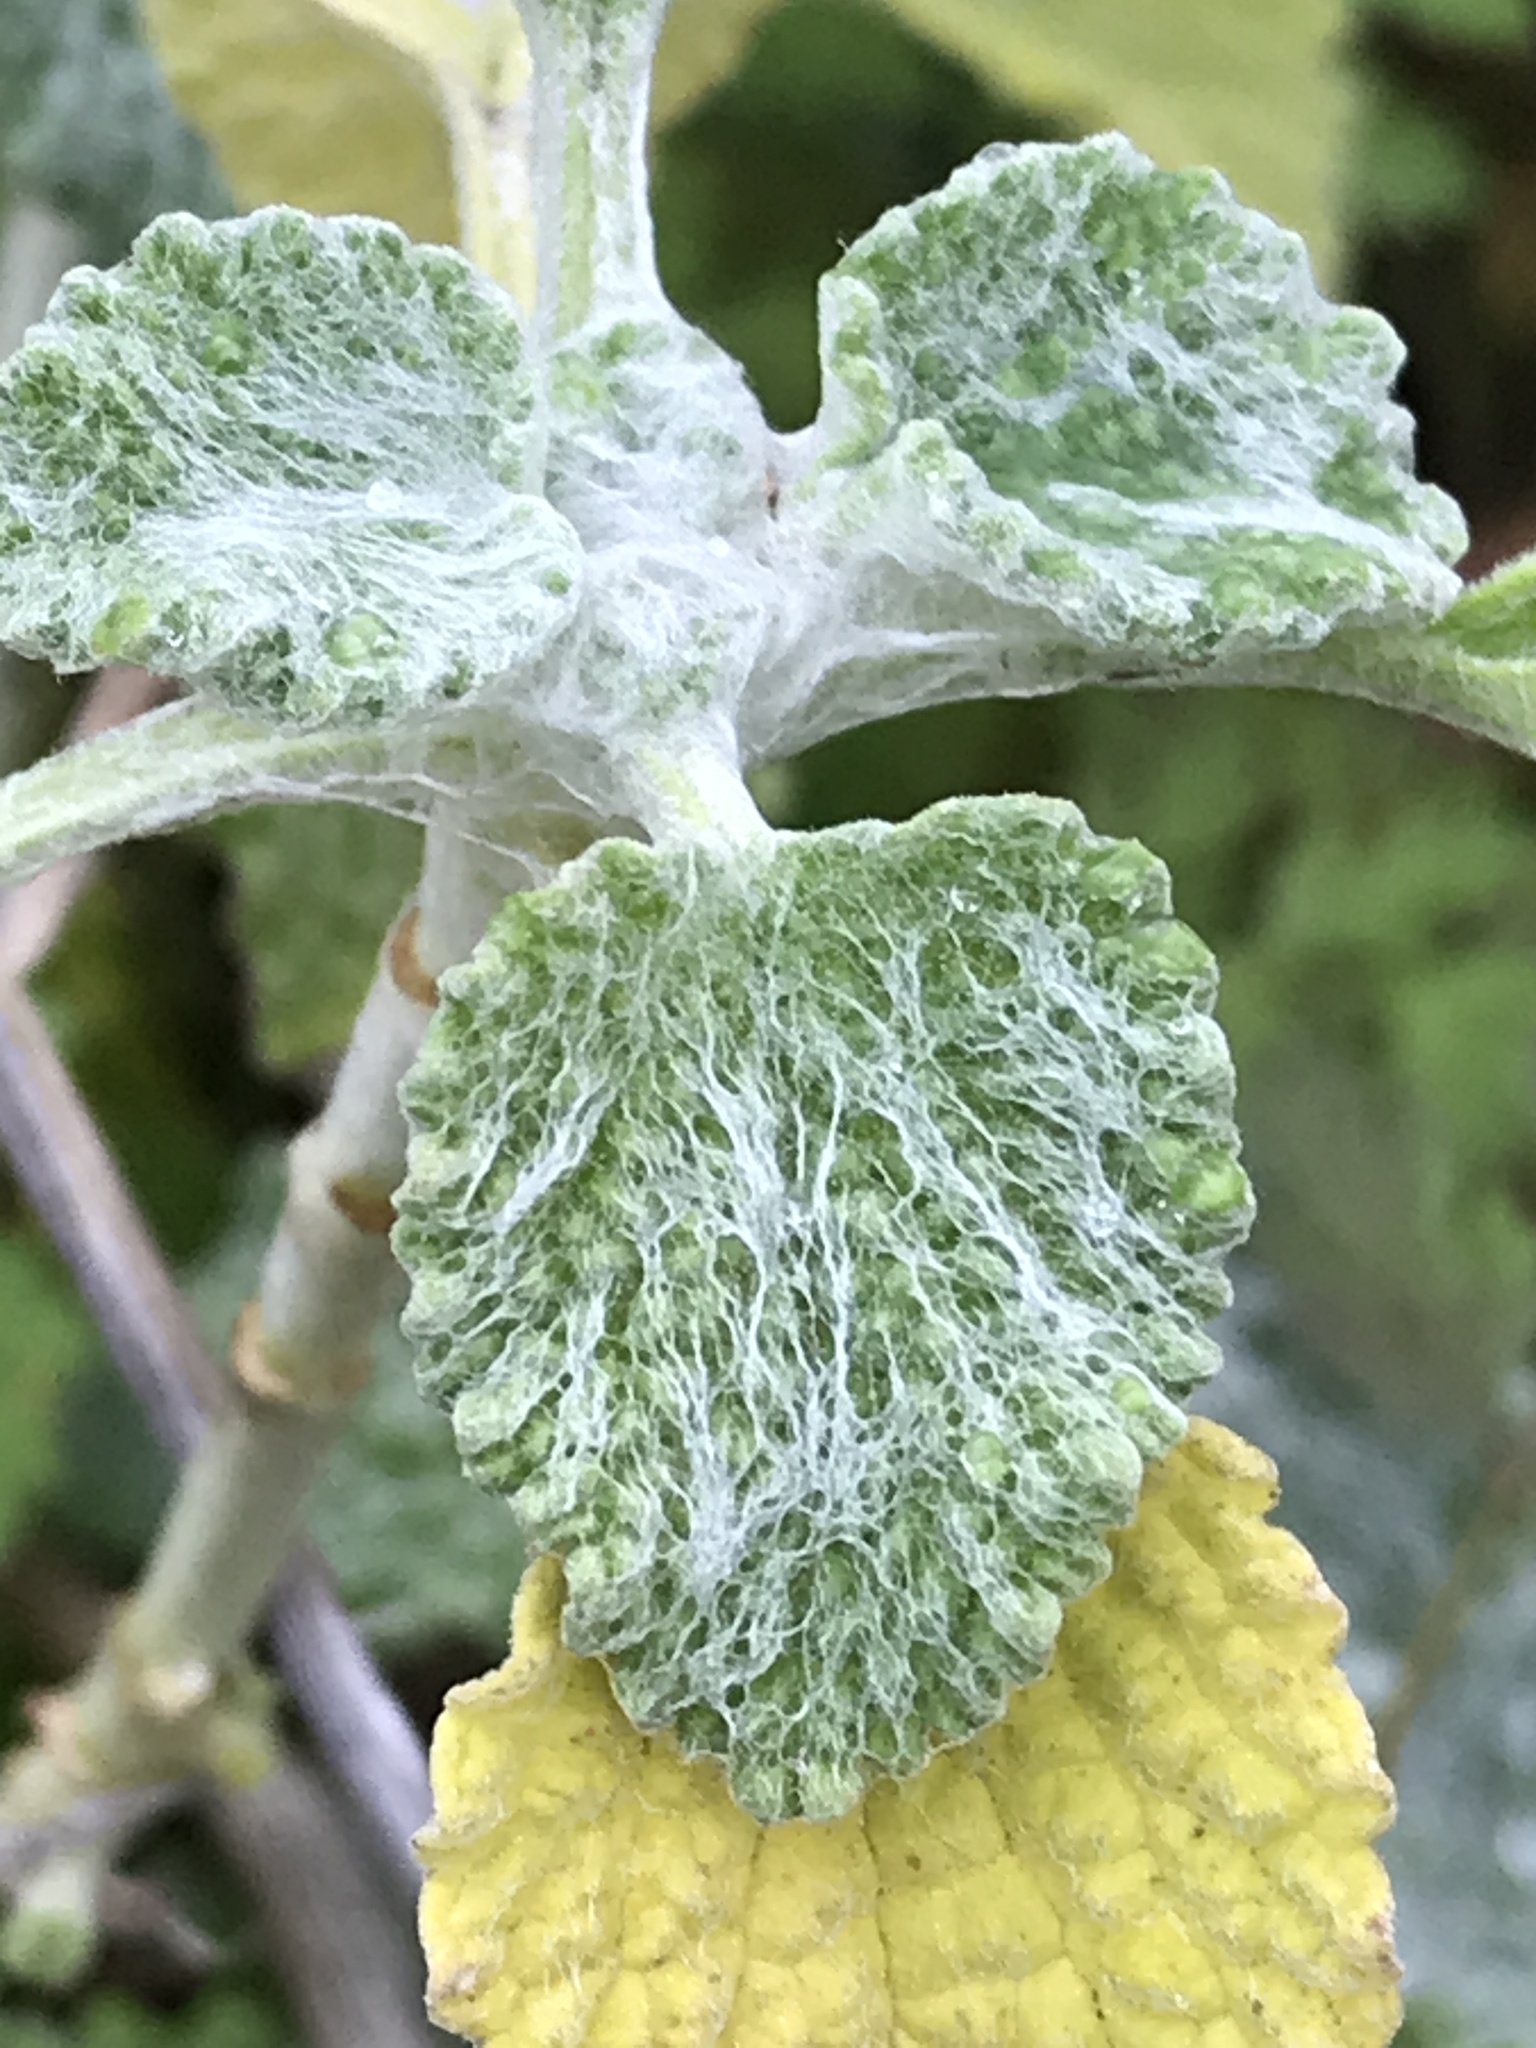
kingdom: Plantae
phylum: Tracheophyta
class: Magnoliopsida
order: Lamiales
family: Lamiaceae
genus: Marrubium
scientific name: Marrubium vulgare
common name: Horehound
